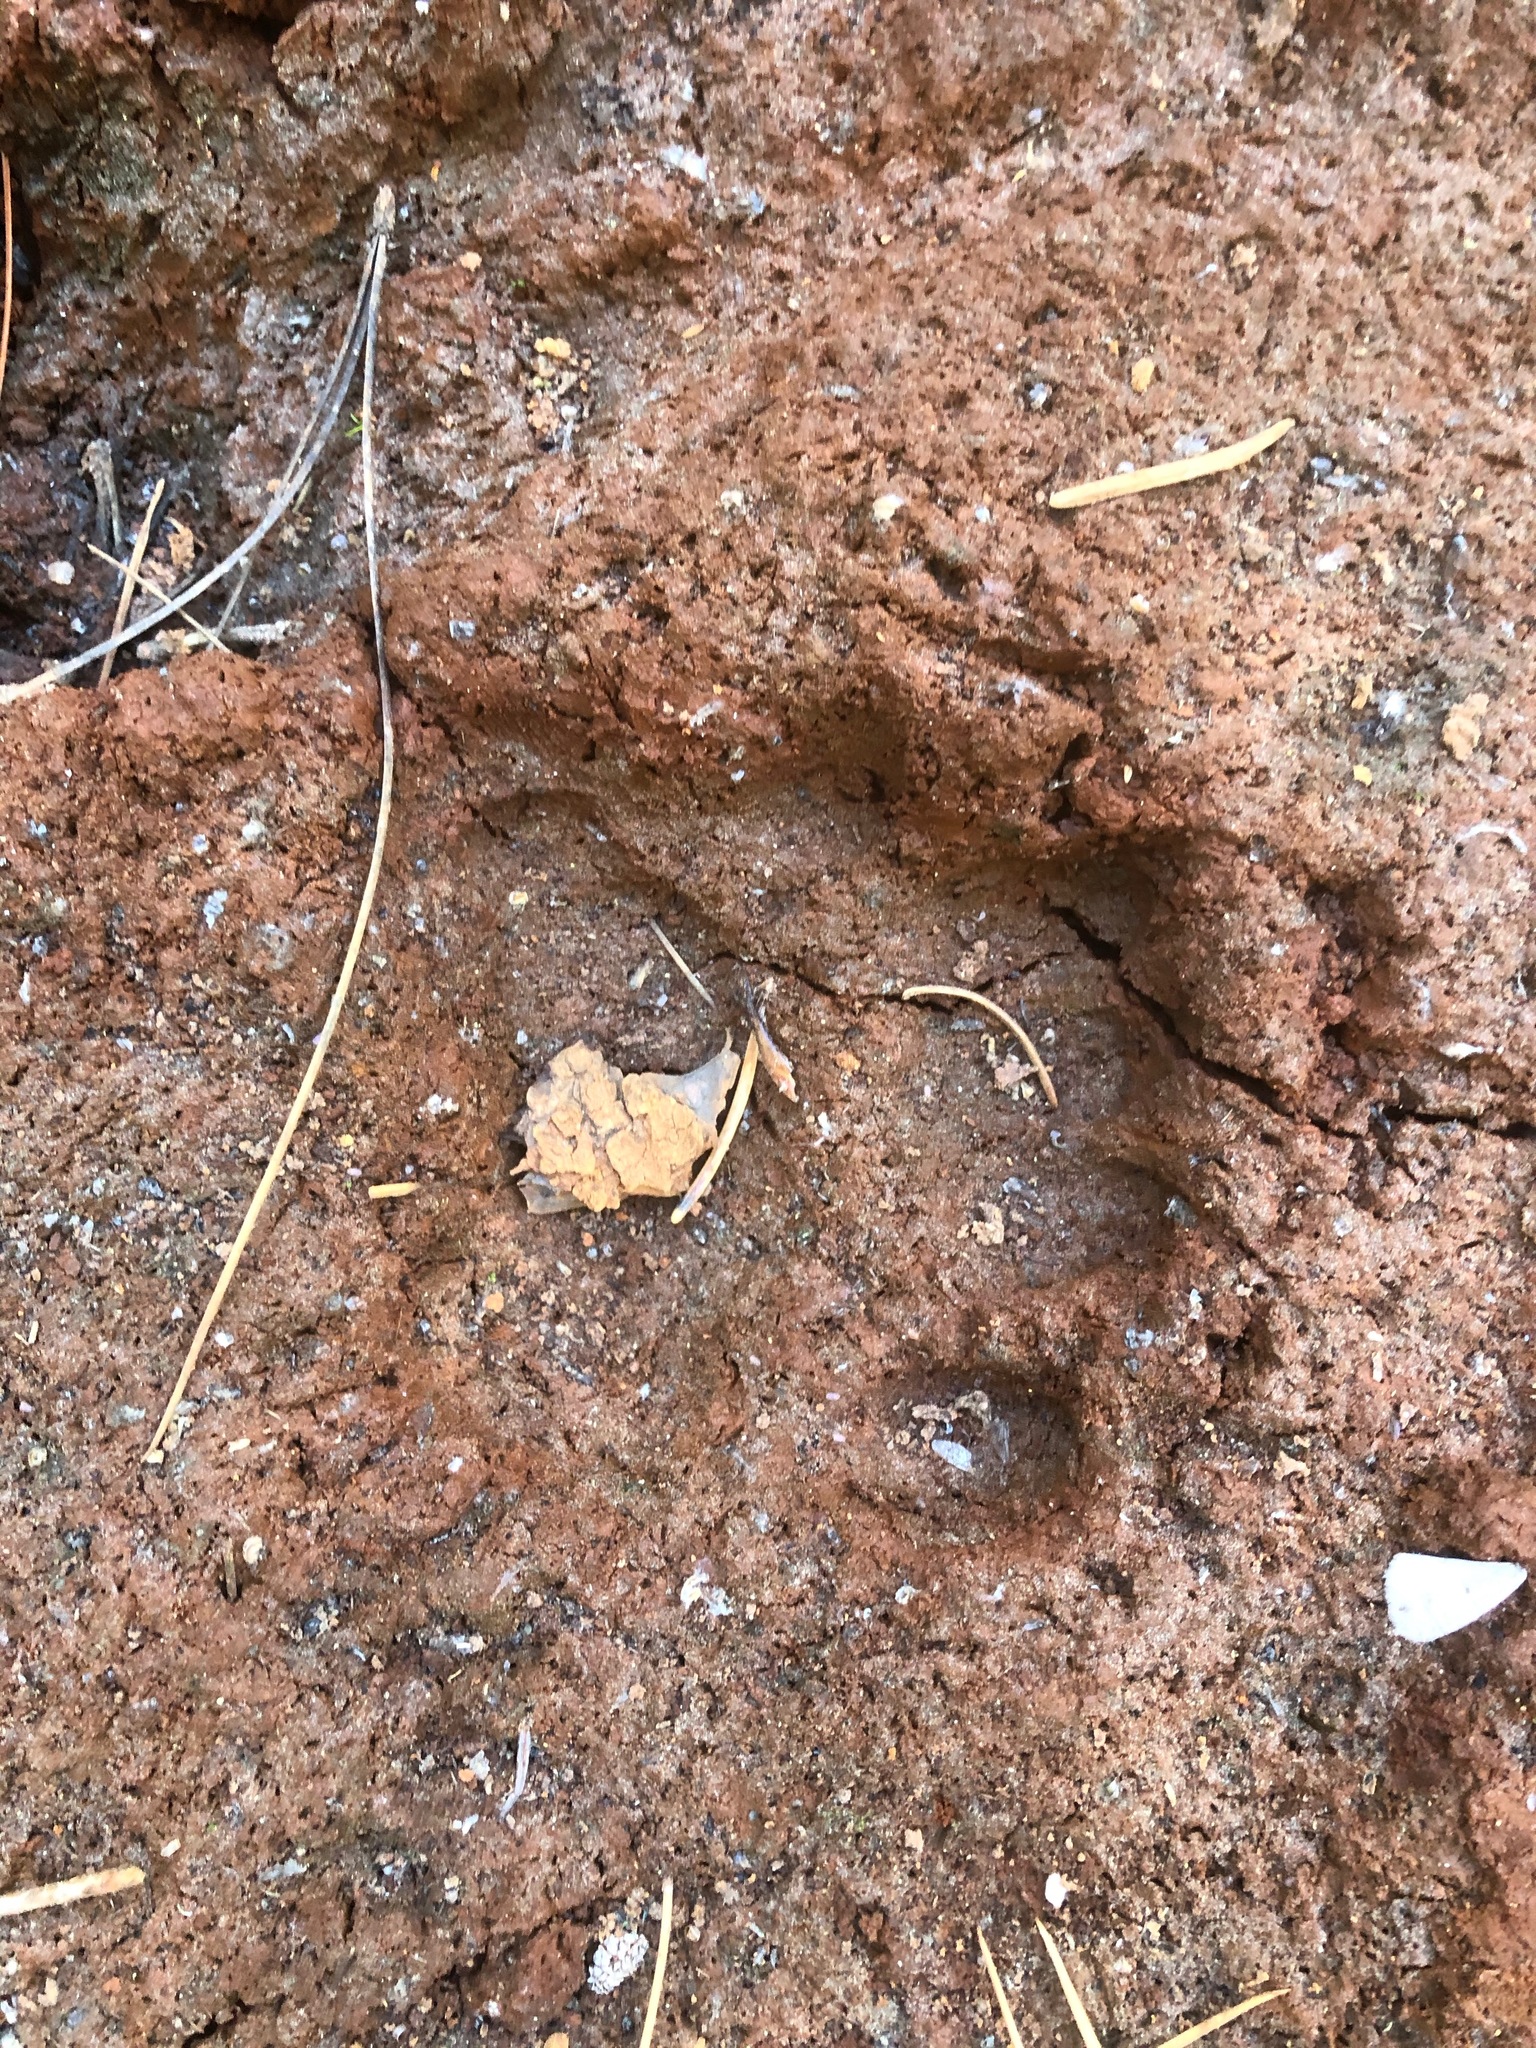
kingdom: Animalia
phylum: Chordata
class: Mammalia
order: Carnivora
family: Ursidae
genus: Ursus
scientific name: Ursus americanus
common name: American black bear
